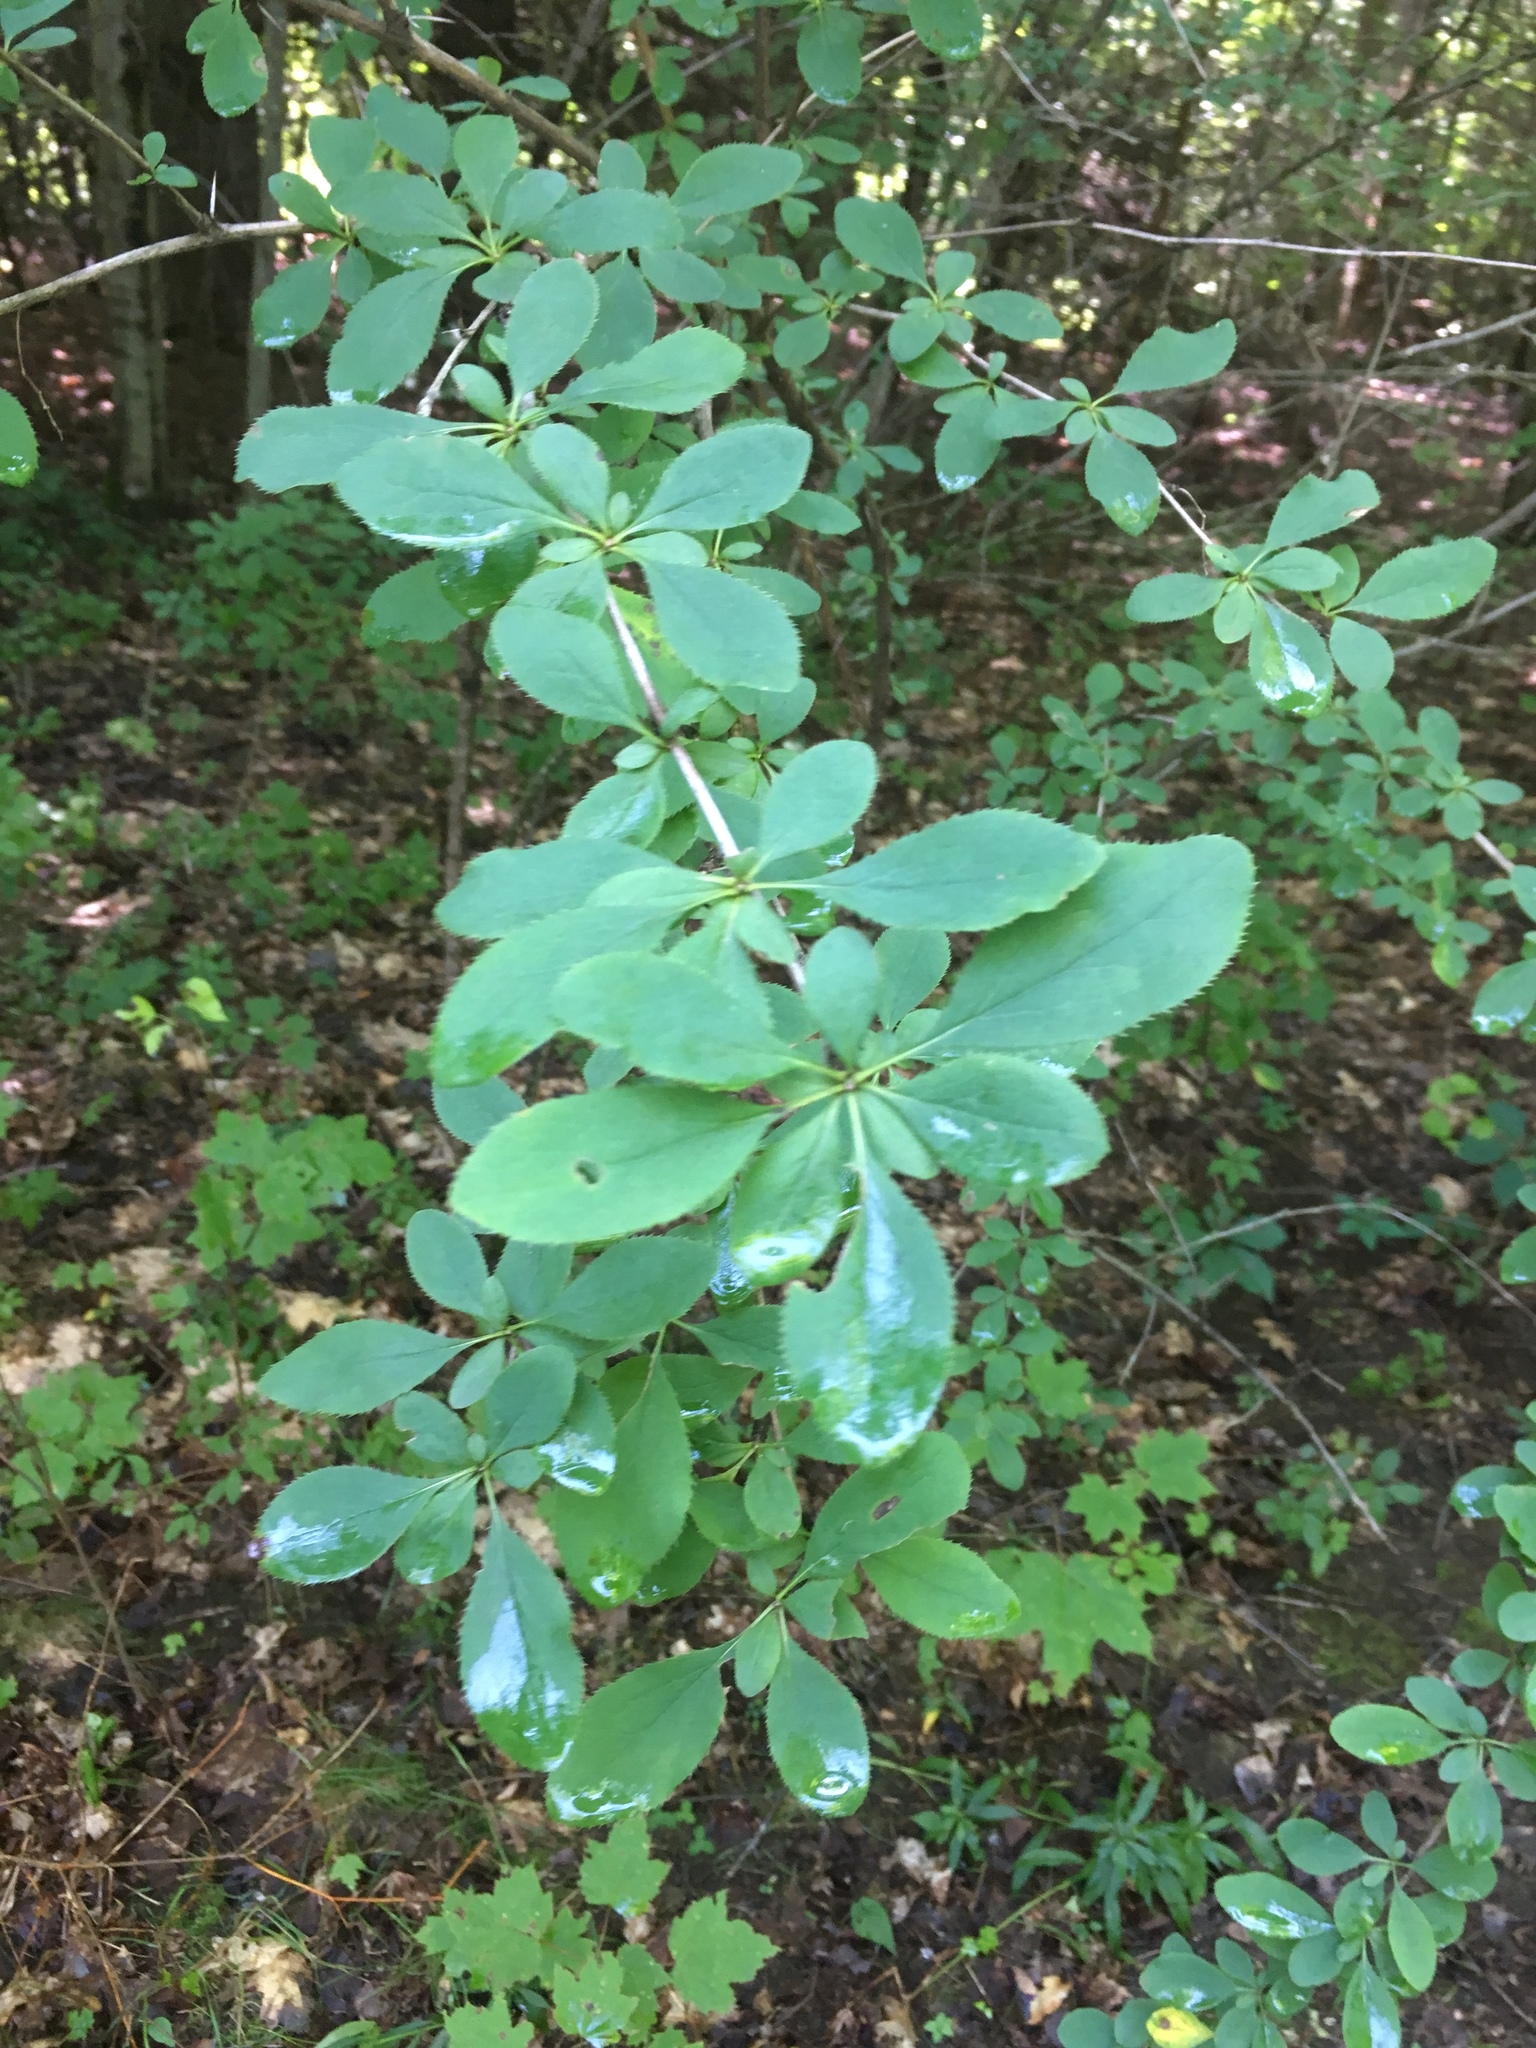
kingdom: Plantae
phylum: Tracheophyta
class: Magnoliopsida
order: Ranunculales
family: Berberidaceae
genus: Berberis
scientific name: Berberis vulgaris
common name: Barberry
